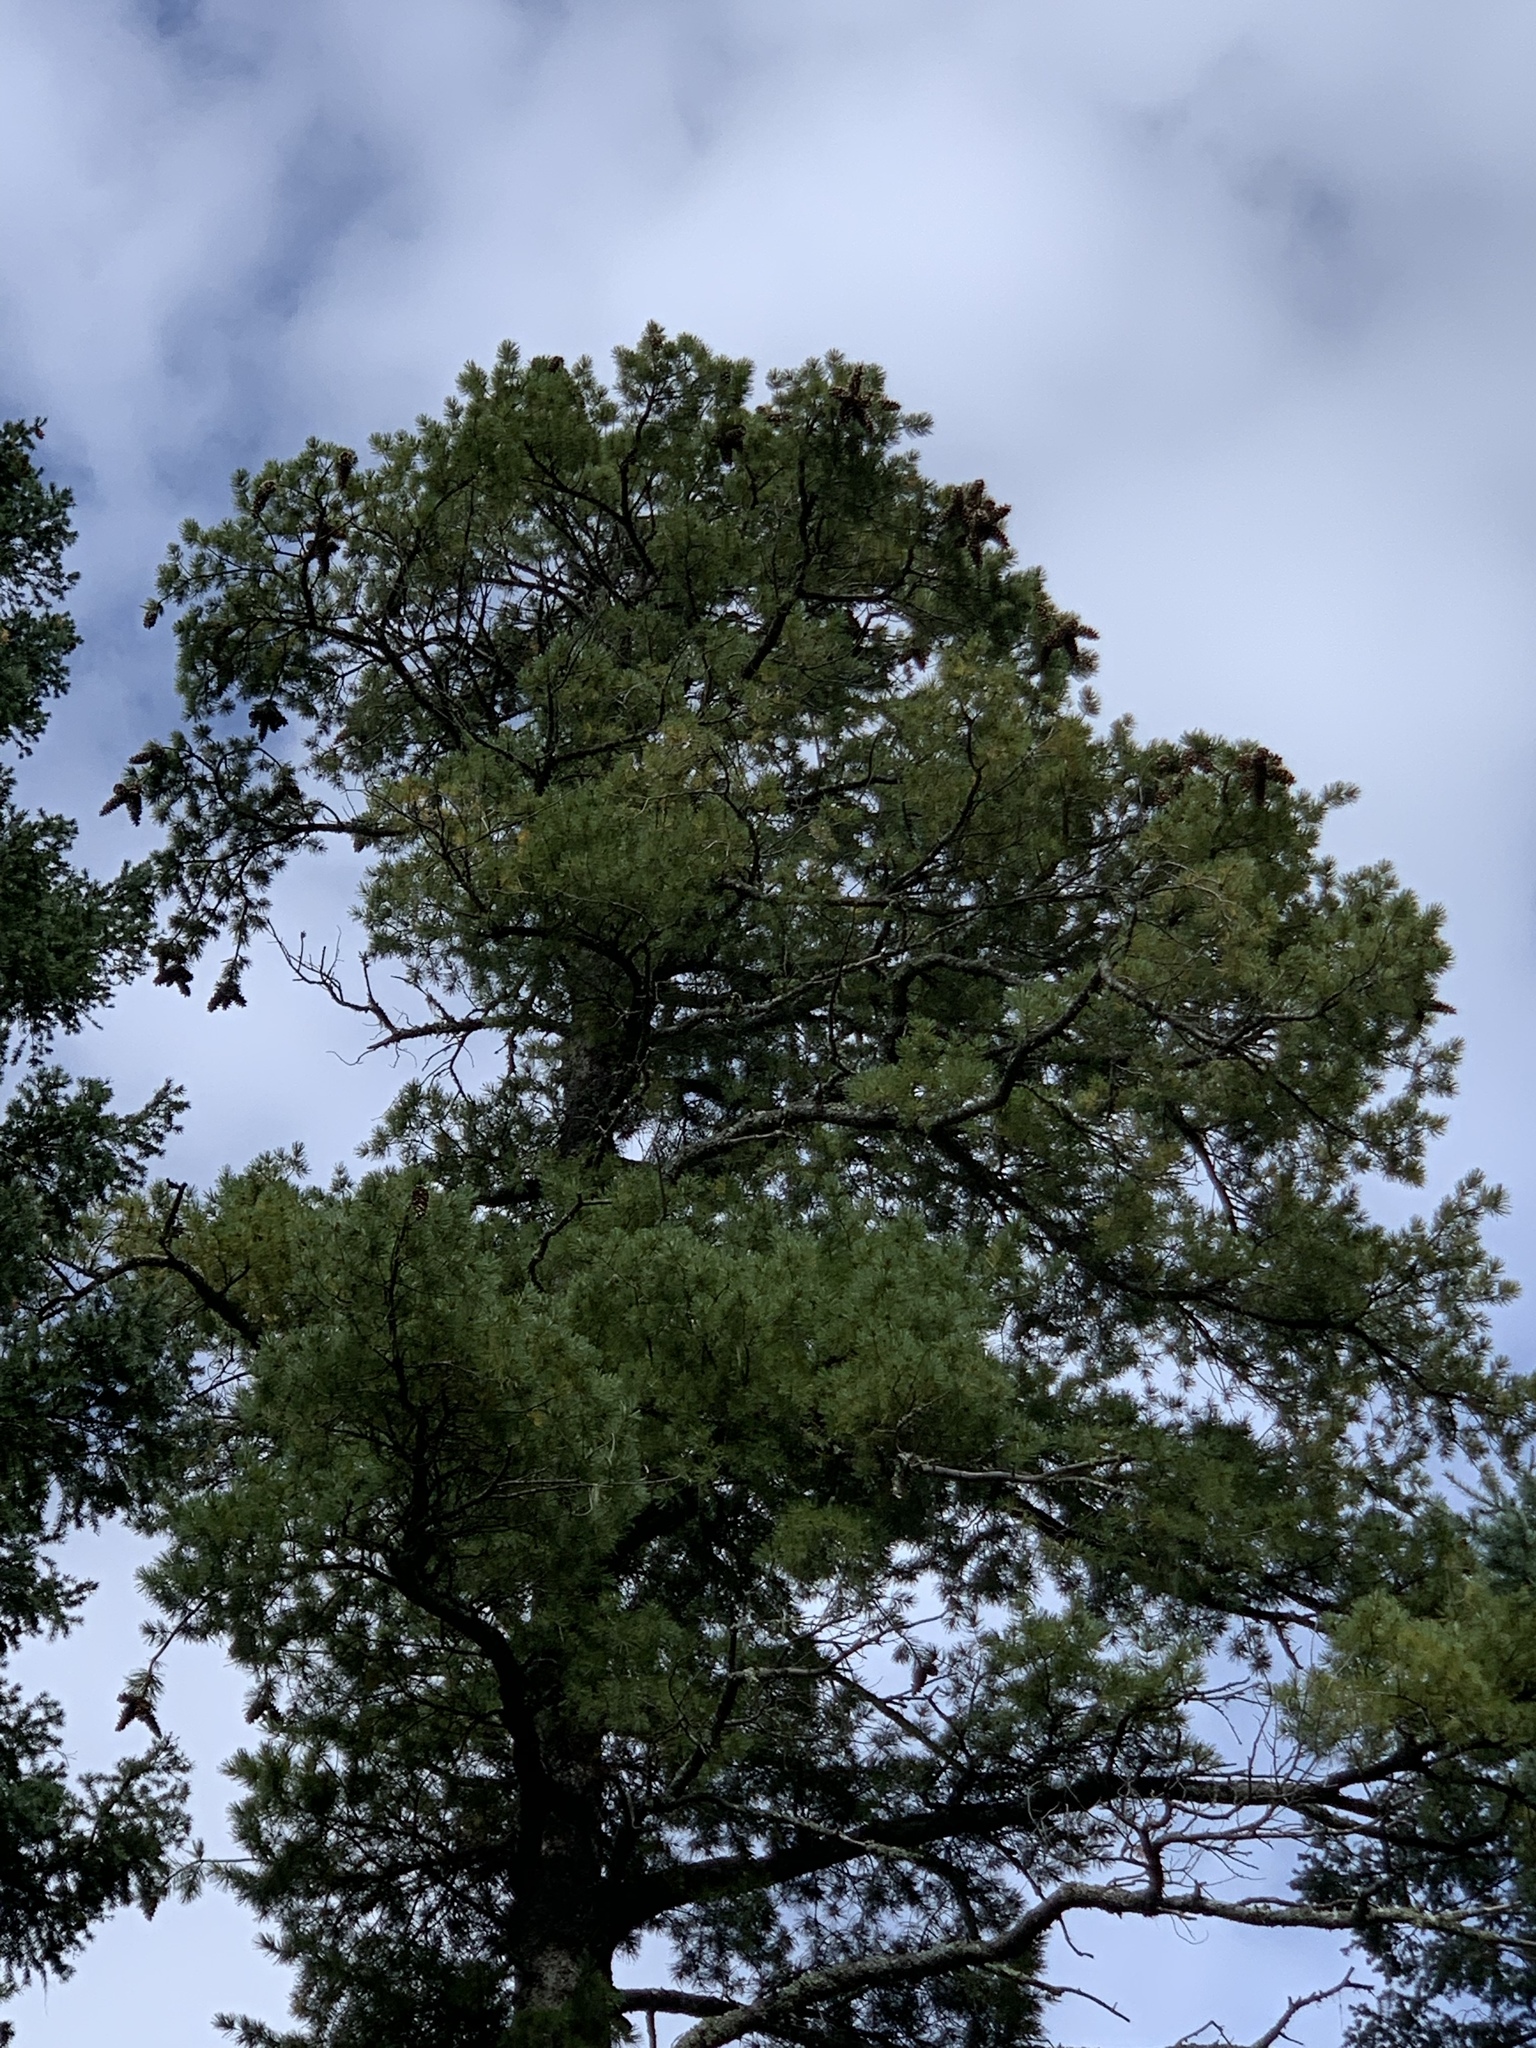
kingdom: Plantae
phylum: Tracheophyta
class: Pinopsida
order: Pinales
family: Pinaceae
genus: Pinus
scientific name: Pinus strobiformis
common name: Southwestern white pine
